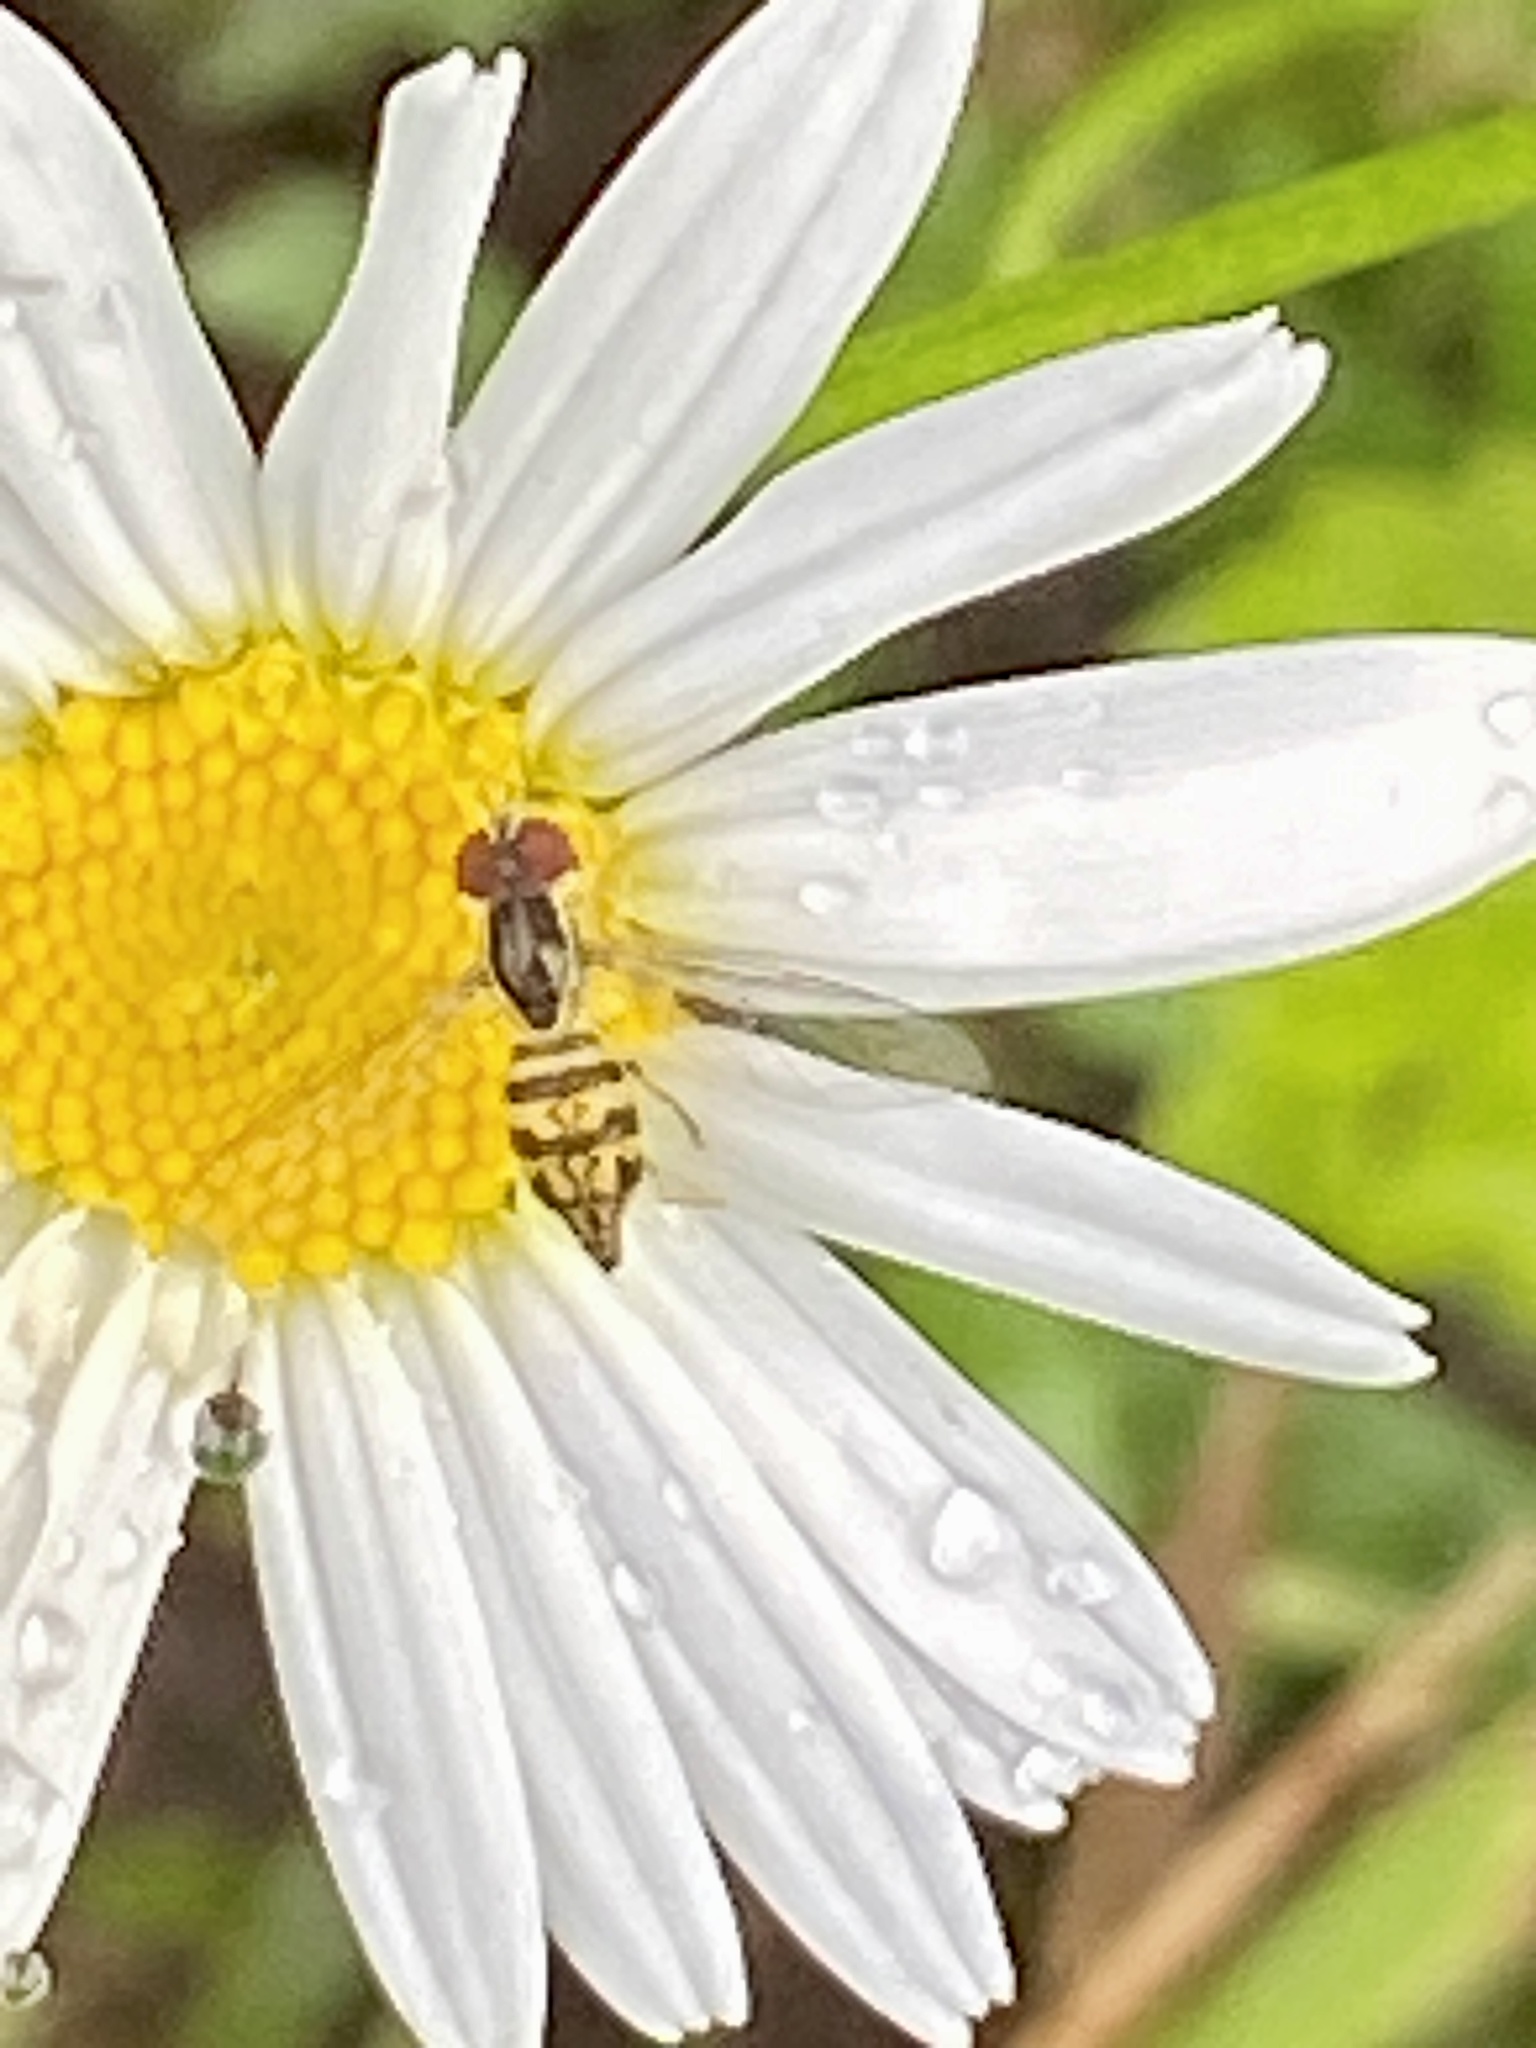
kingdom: Animalia
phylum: Arthropoda
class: Insecta
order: Diptera
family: Syrphidae
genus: Toxomerus
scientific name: Toxomerus geminatus
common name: Eastern calligrapher
